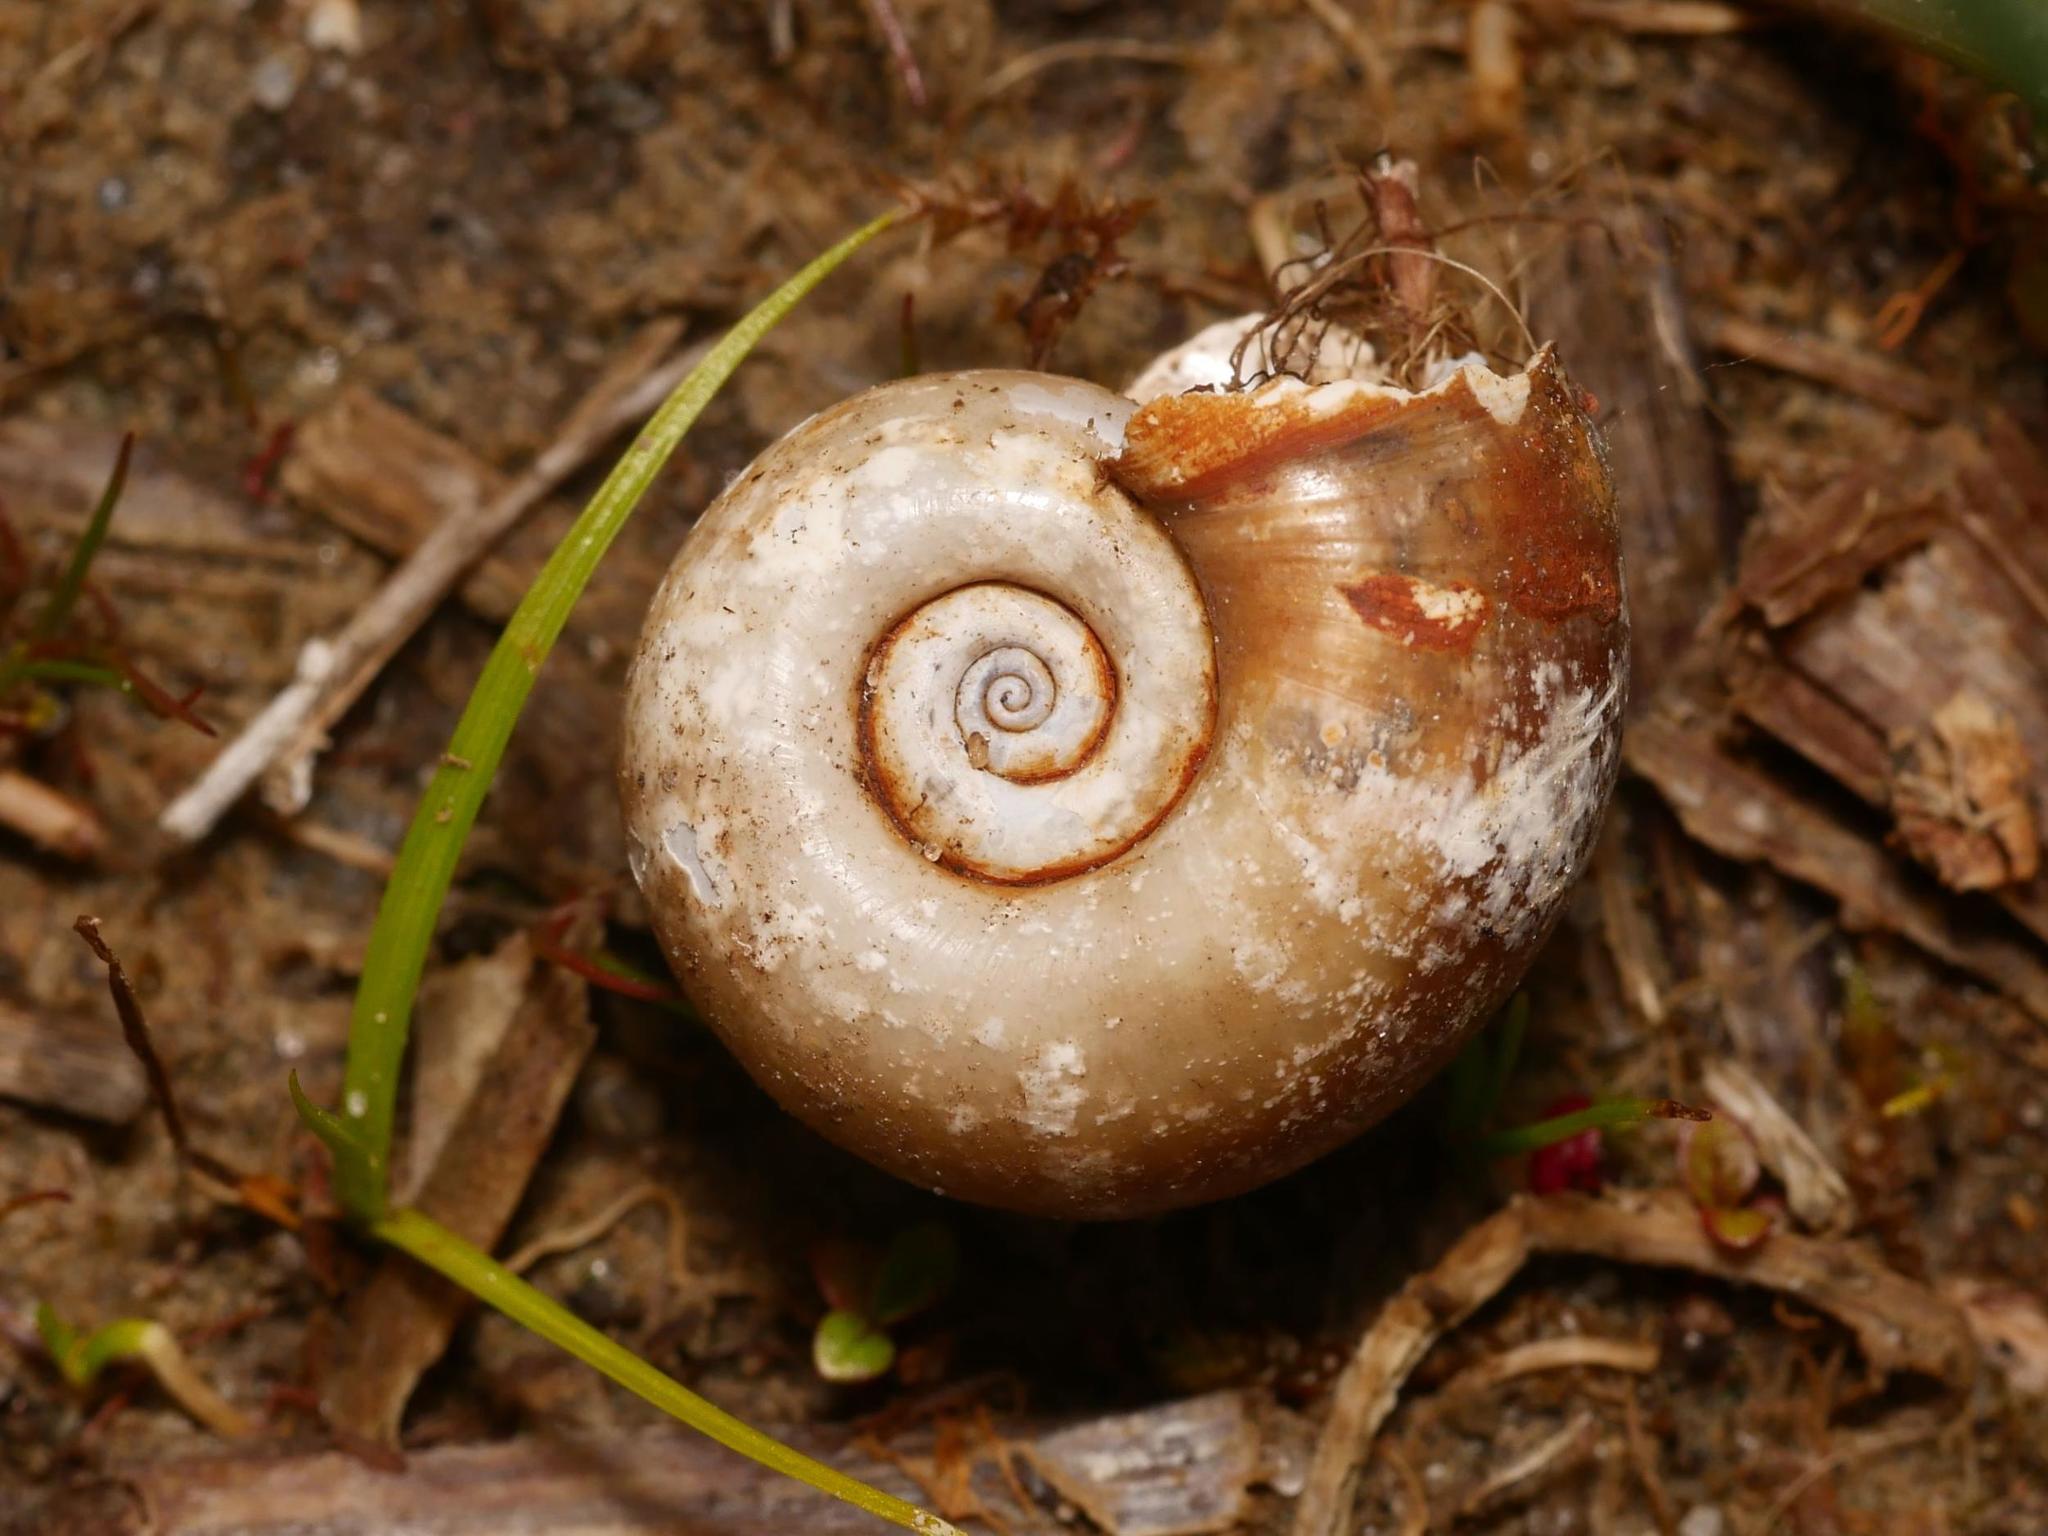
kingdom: Animalia
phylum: Mollusca
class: Gastropoda
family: Planorbidae
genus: Planorbarius
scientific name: Planorbarius corneus
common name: Great ramshorn
